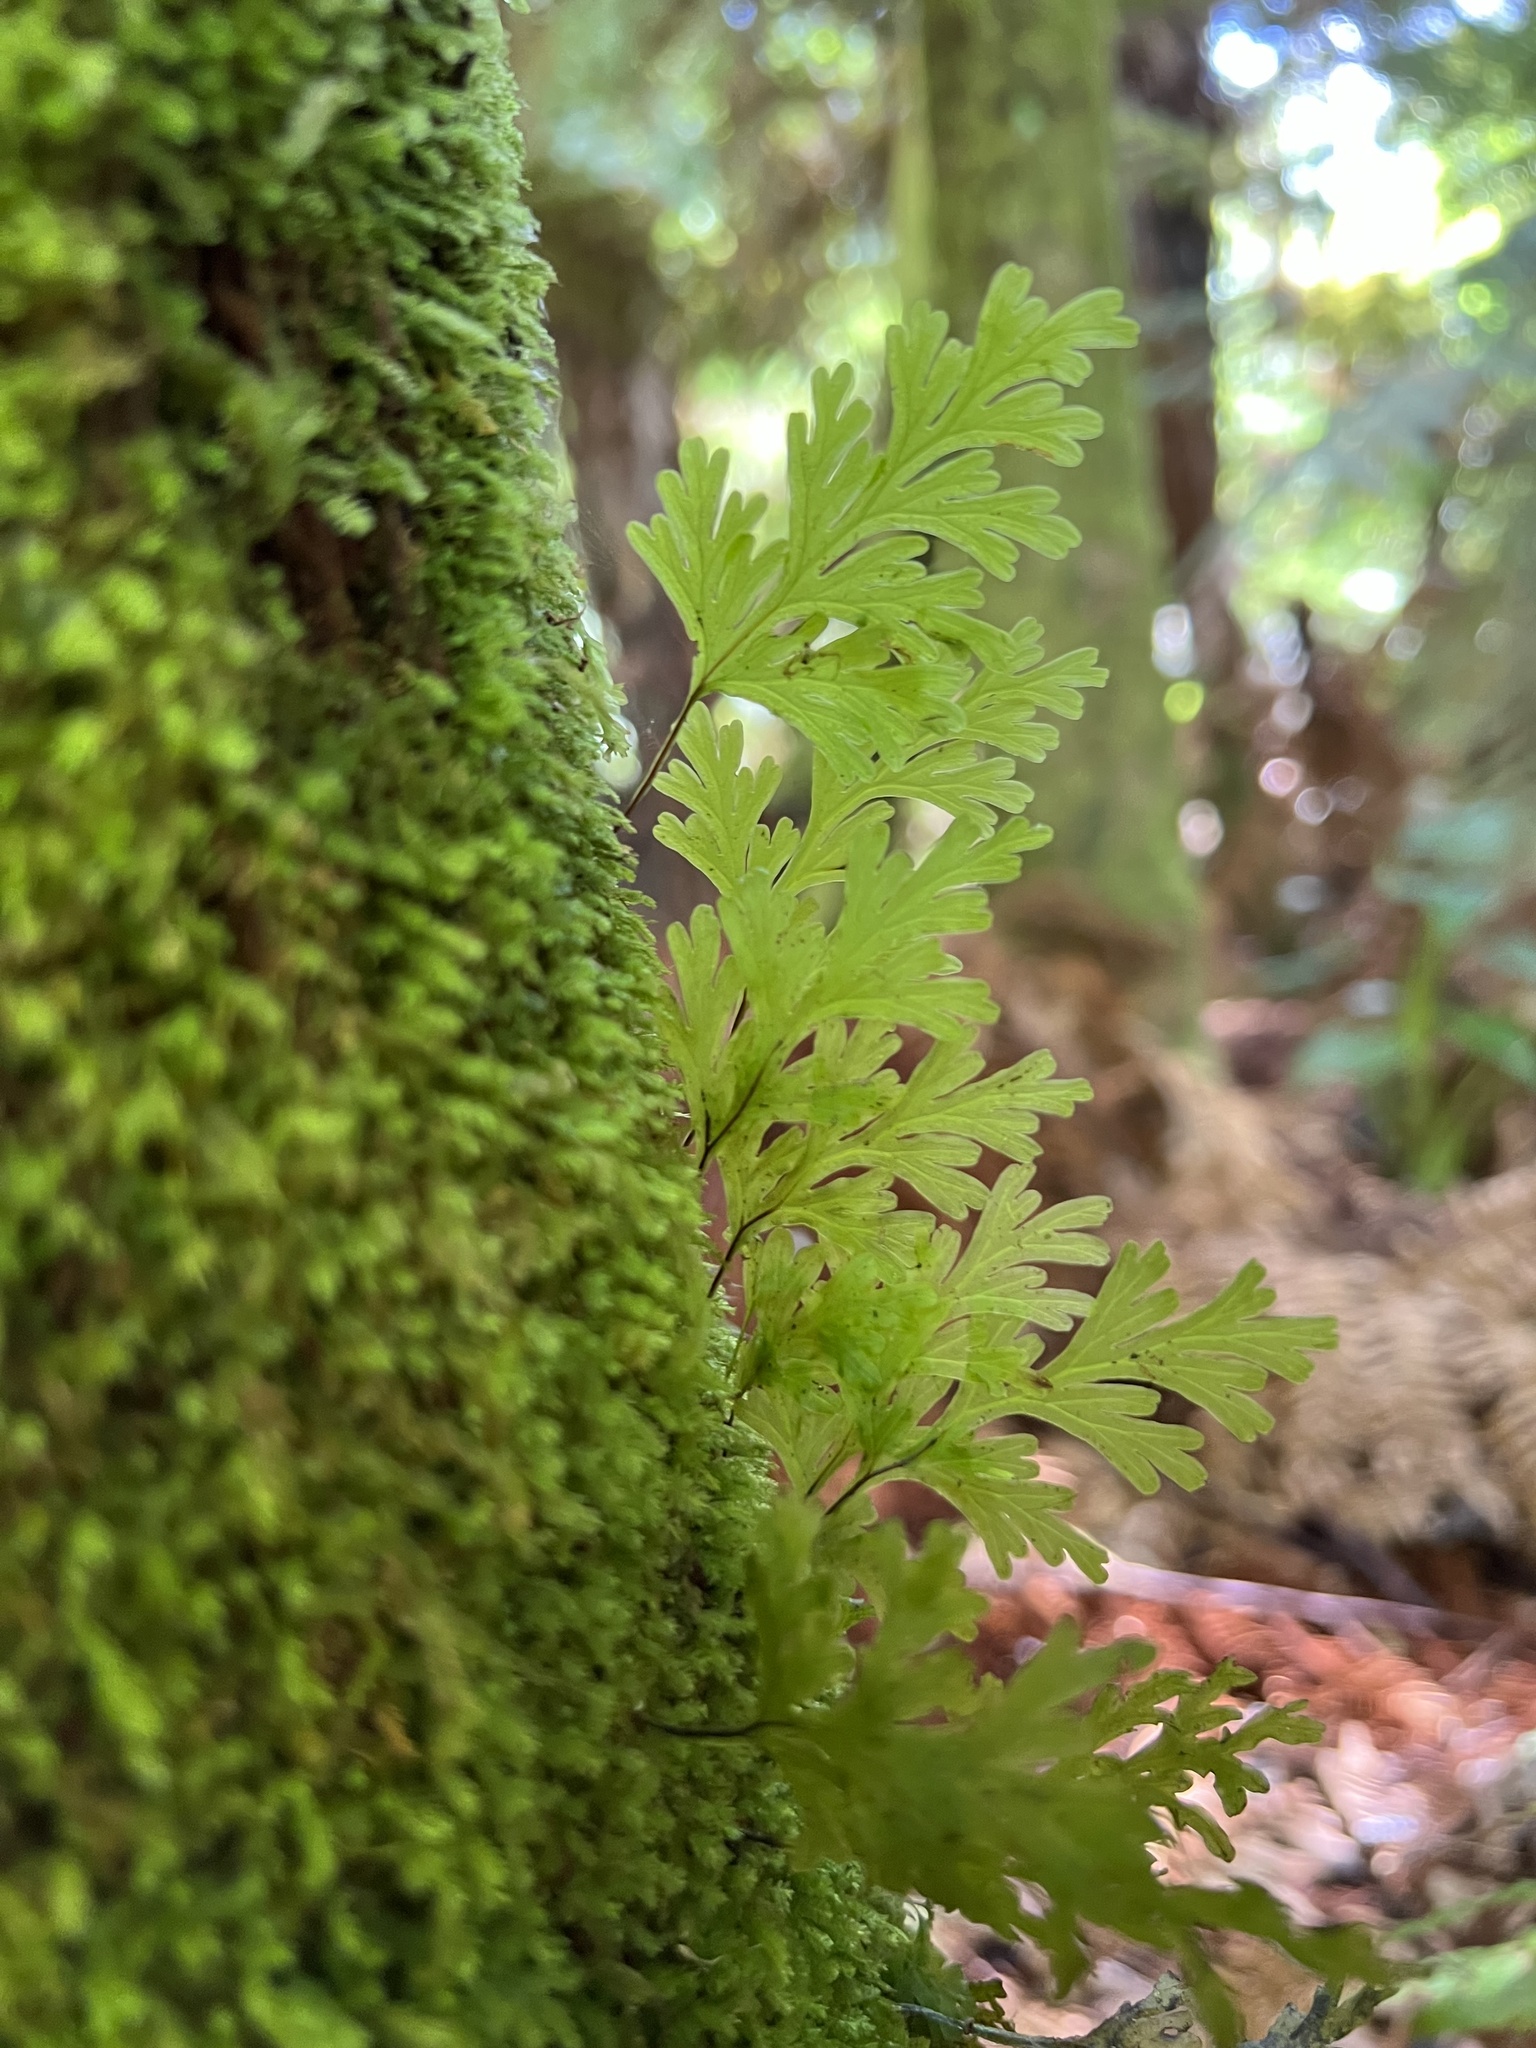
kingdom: Plantae
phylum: Tracheophyta
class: Polypodiopsida
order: Hymenophyllales
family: Hymenophyllaceae
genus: Hymenophyllum
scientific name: Hymenophyllum dilatatum
